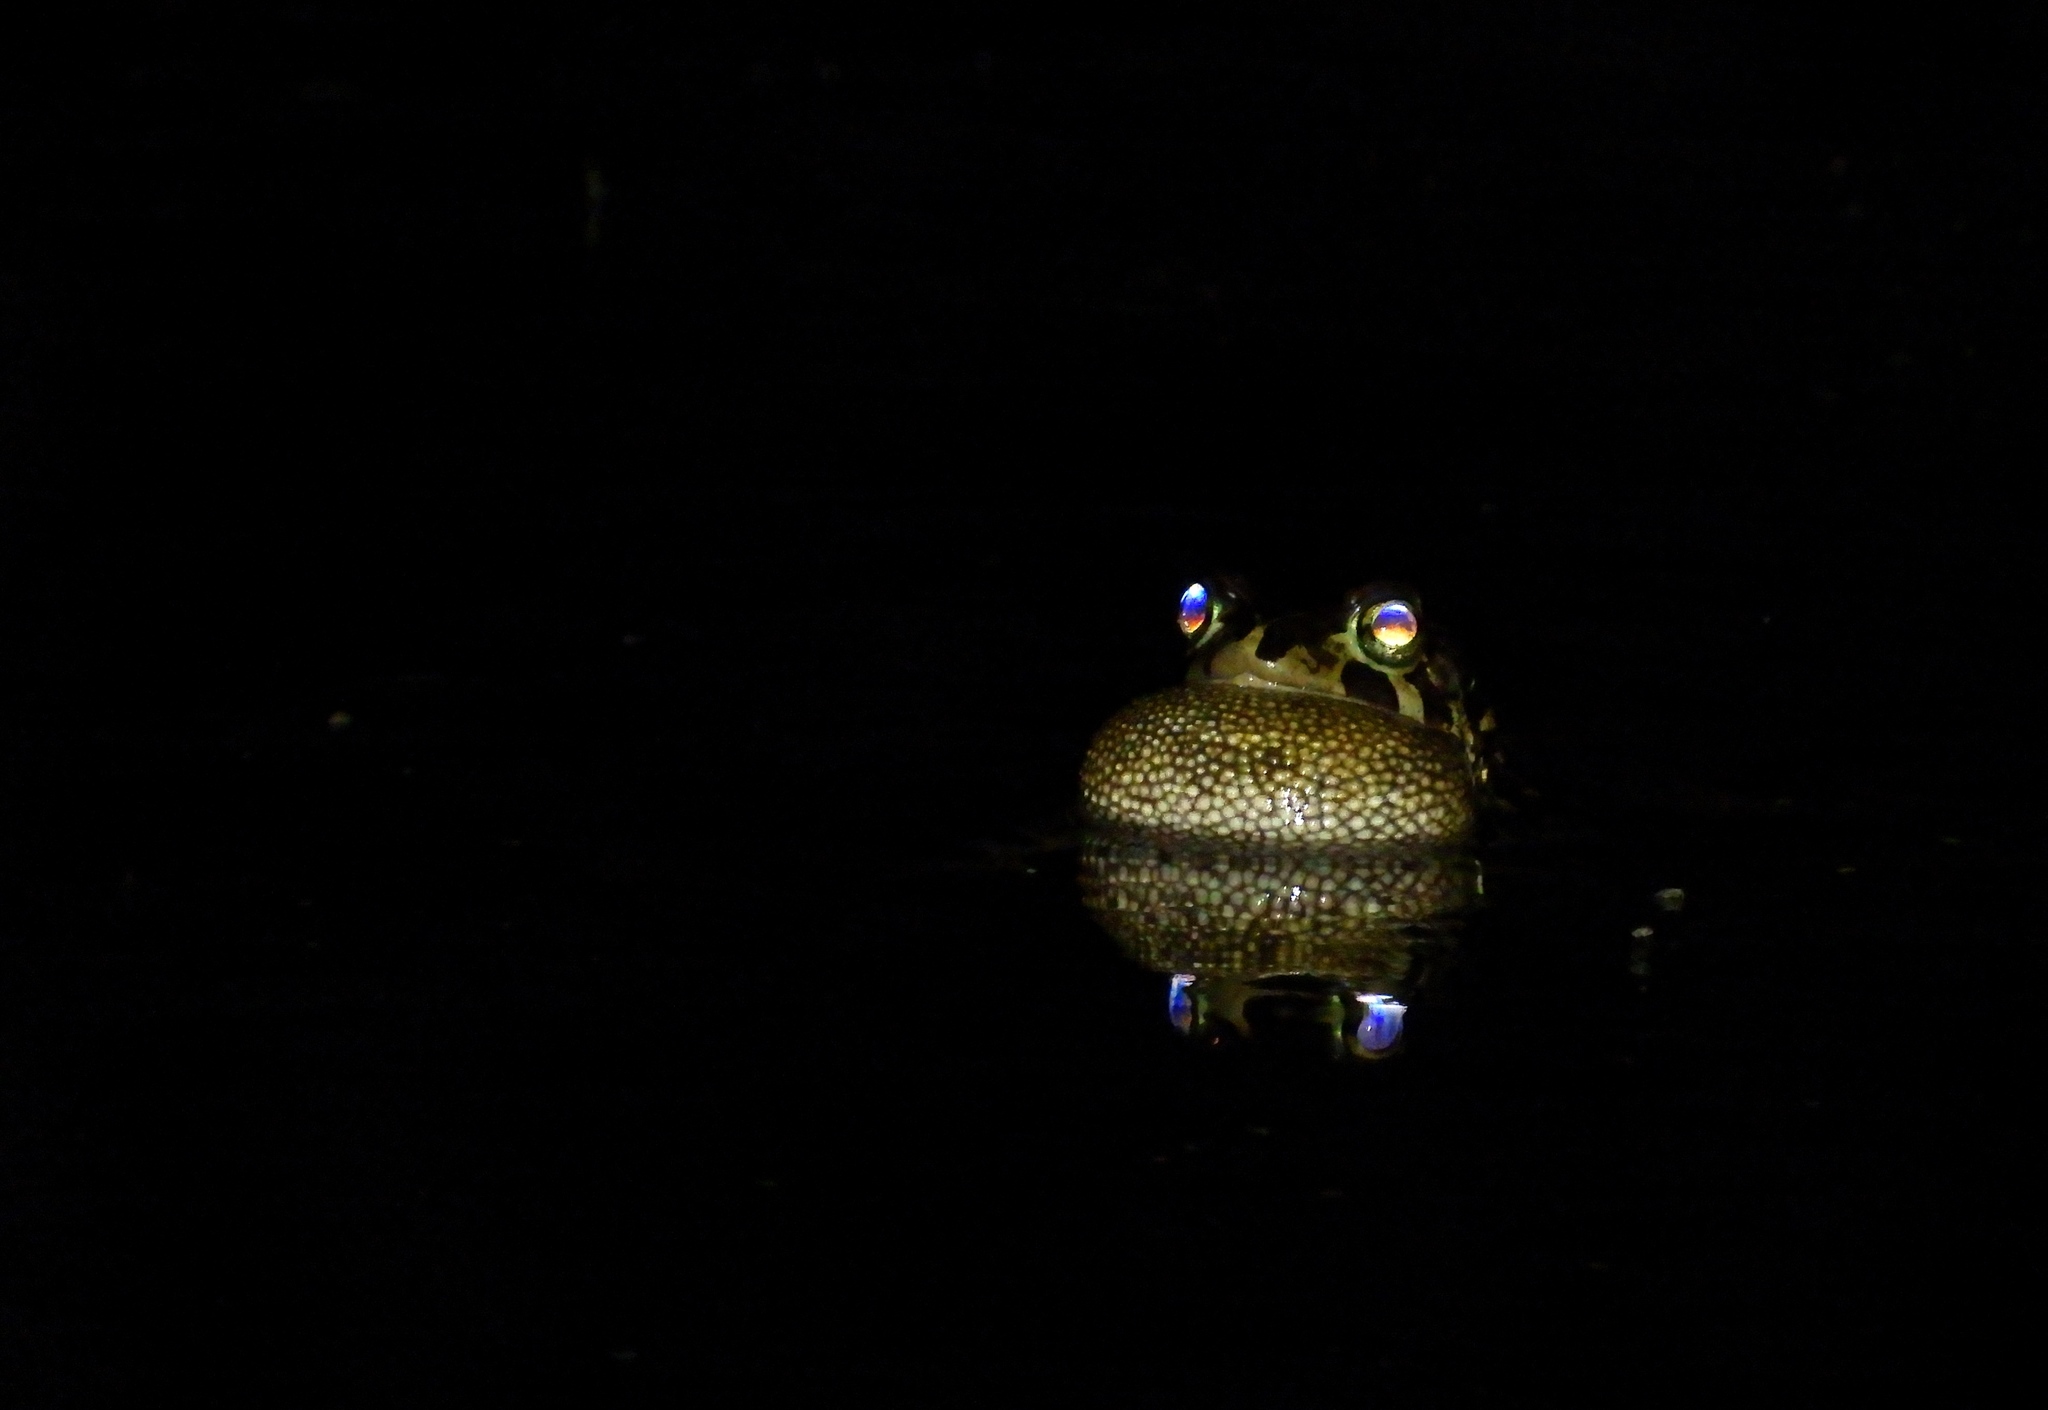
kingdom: Animalia
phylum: Chordata
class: Amphibia
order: Anura
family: Bufonidae
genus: Sclerophrys
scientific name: Sclerophrys pantherina
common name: Panther toad
